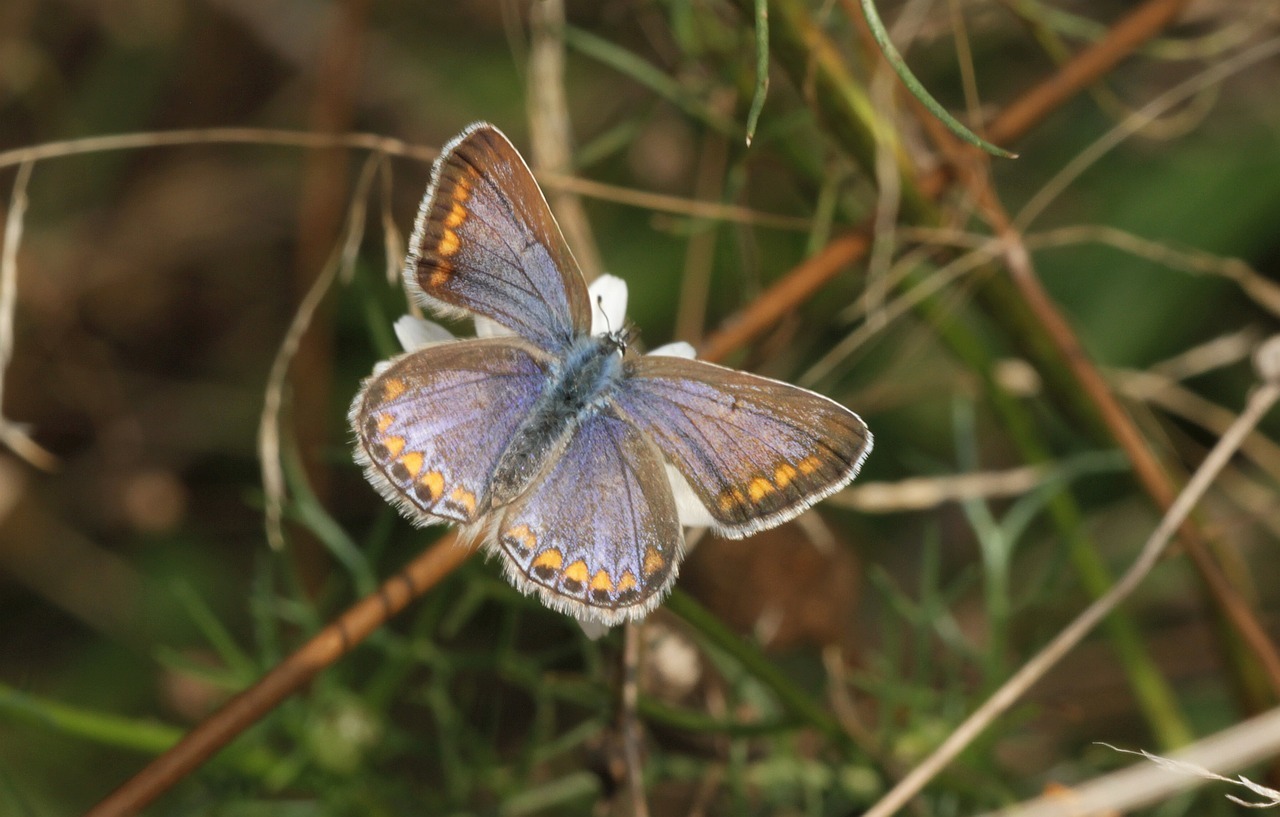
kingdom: Animalia
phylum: Arthropoda
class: Insecta
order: Lepidoptera
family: Lycaenidae
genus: Polyommatus
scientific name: Polyommatus icarus
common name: Common blue
